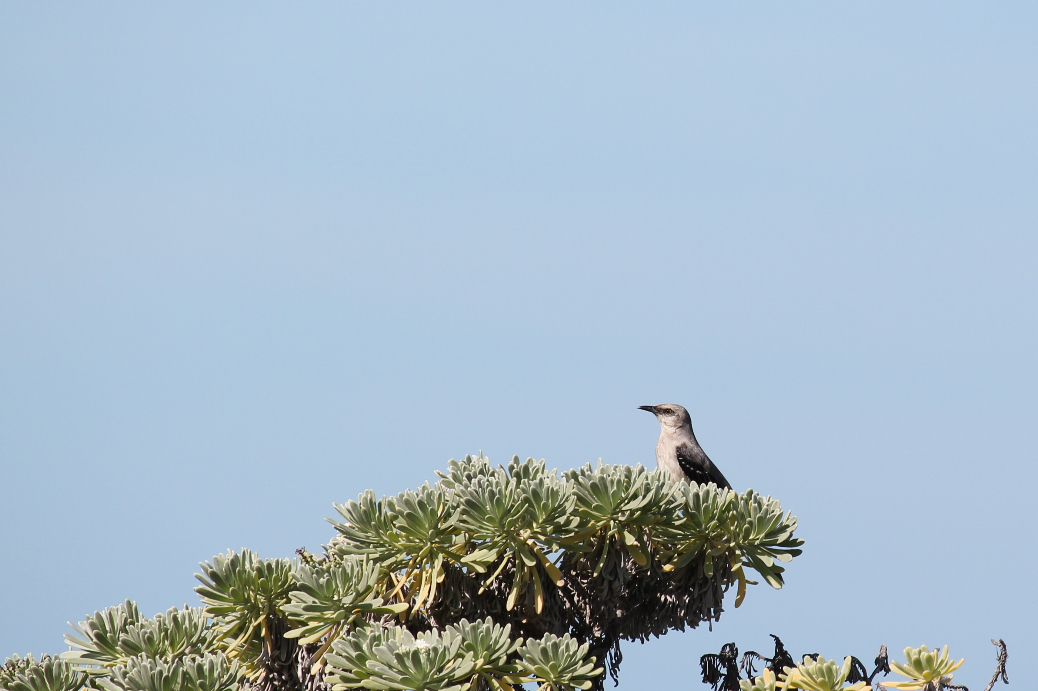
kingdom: Animalia
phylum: Chordata
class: Aves
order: Passeriformes
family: Mimidae
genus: Mimus
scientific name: Mimus gilvus
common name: Tropical mockingbird
